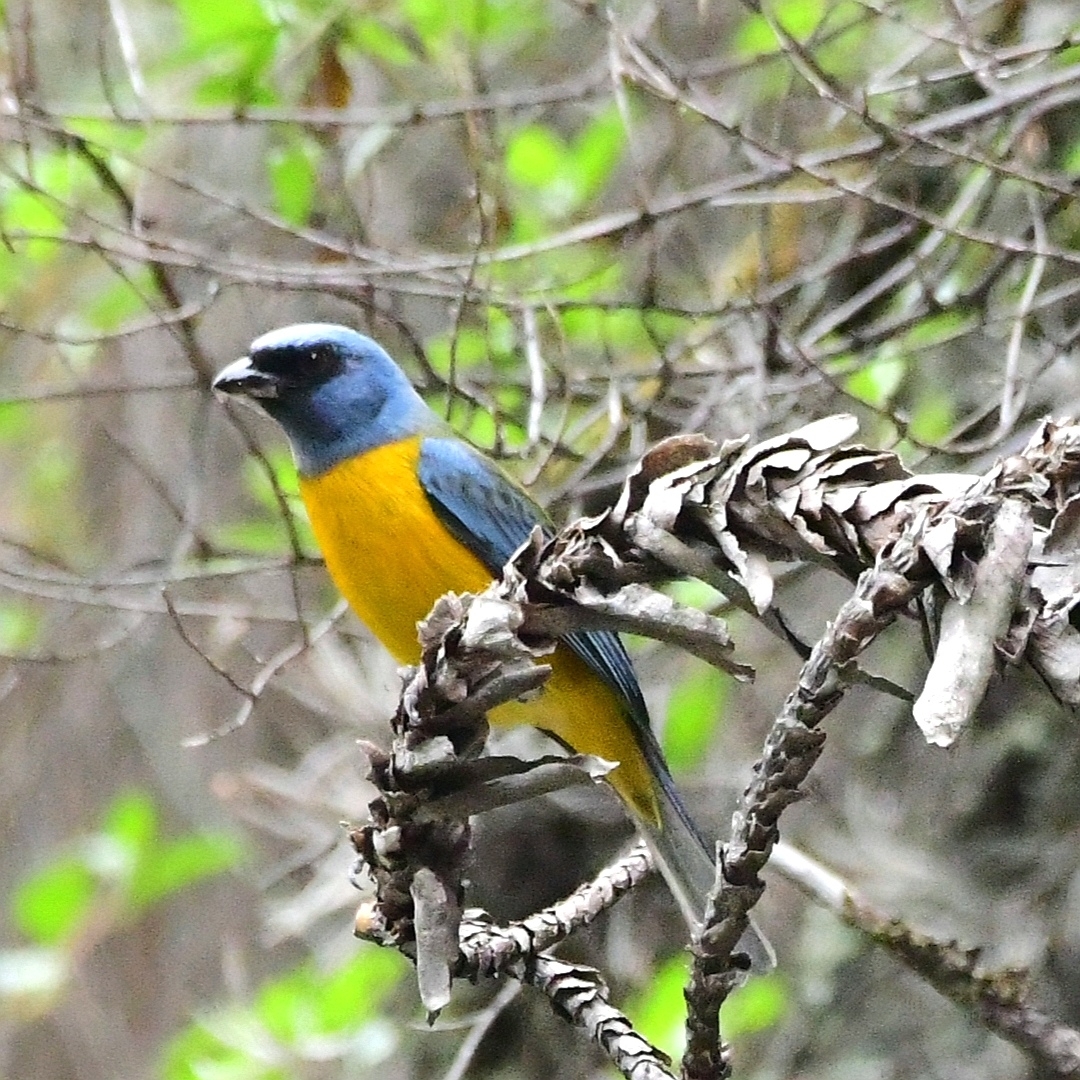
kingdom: Animalia
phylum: Chordata
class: Aves
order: Passeriformes
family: Thraupidae
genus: Rauenia
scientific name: Rauenia bonariensis
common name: Blue-and-yellow tanager
